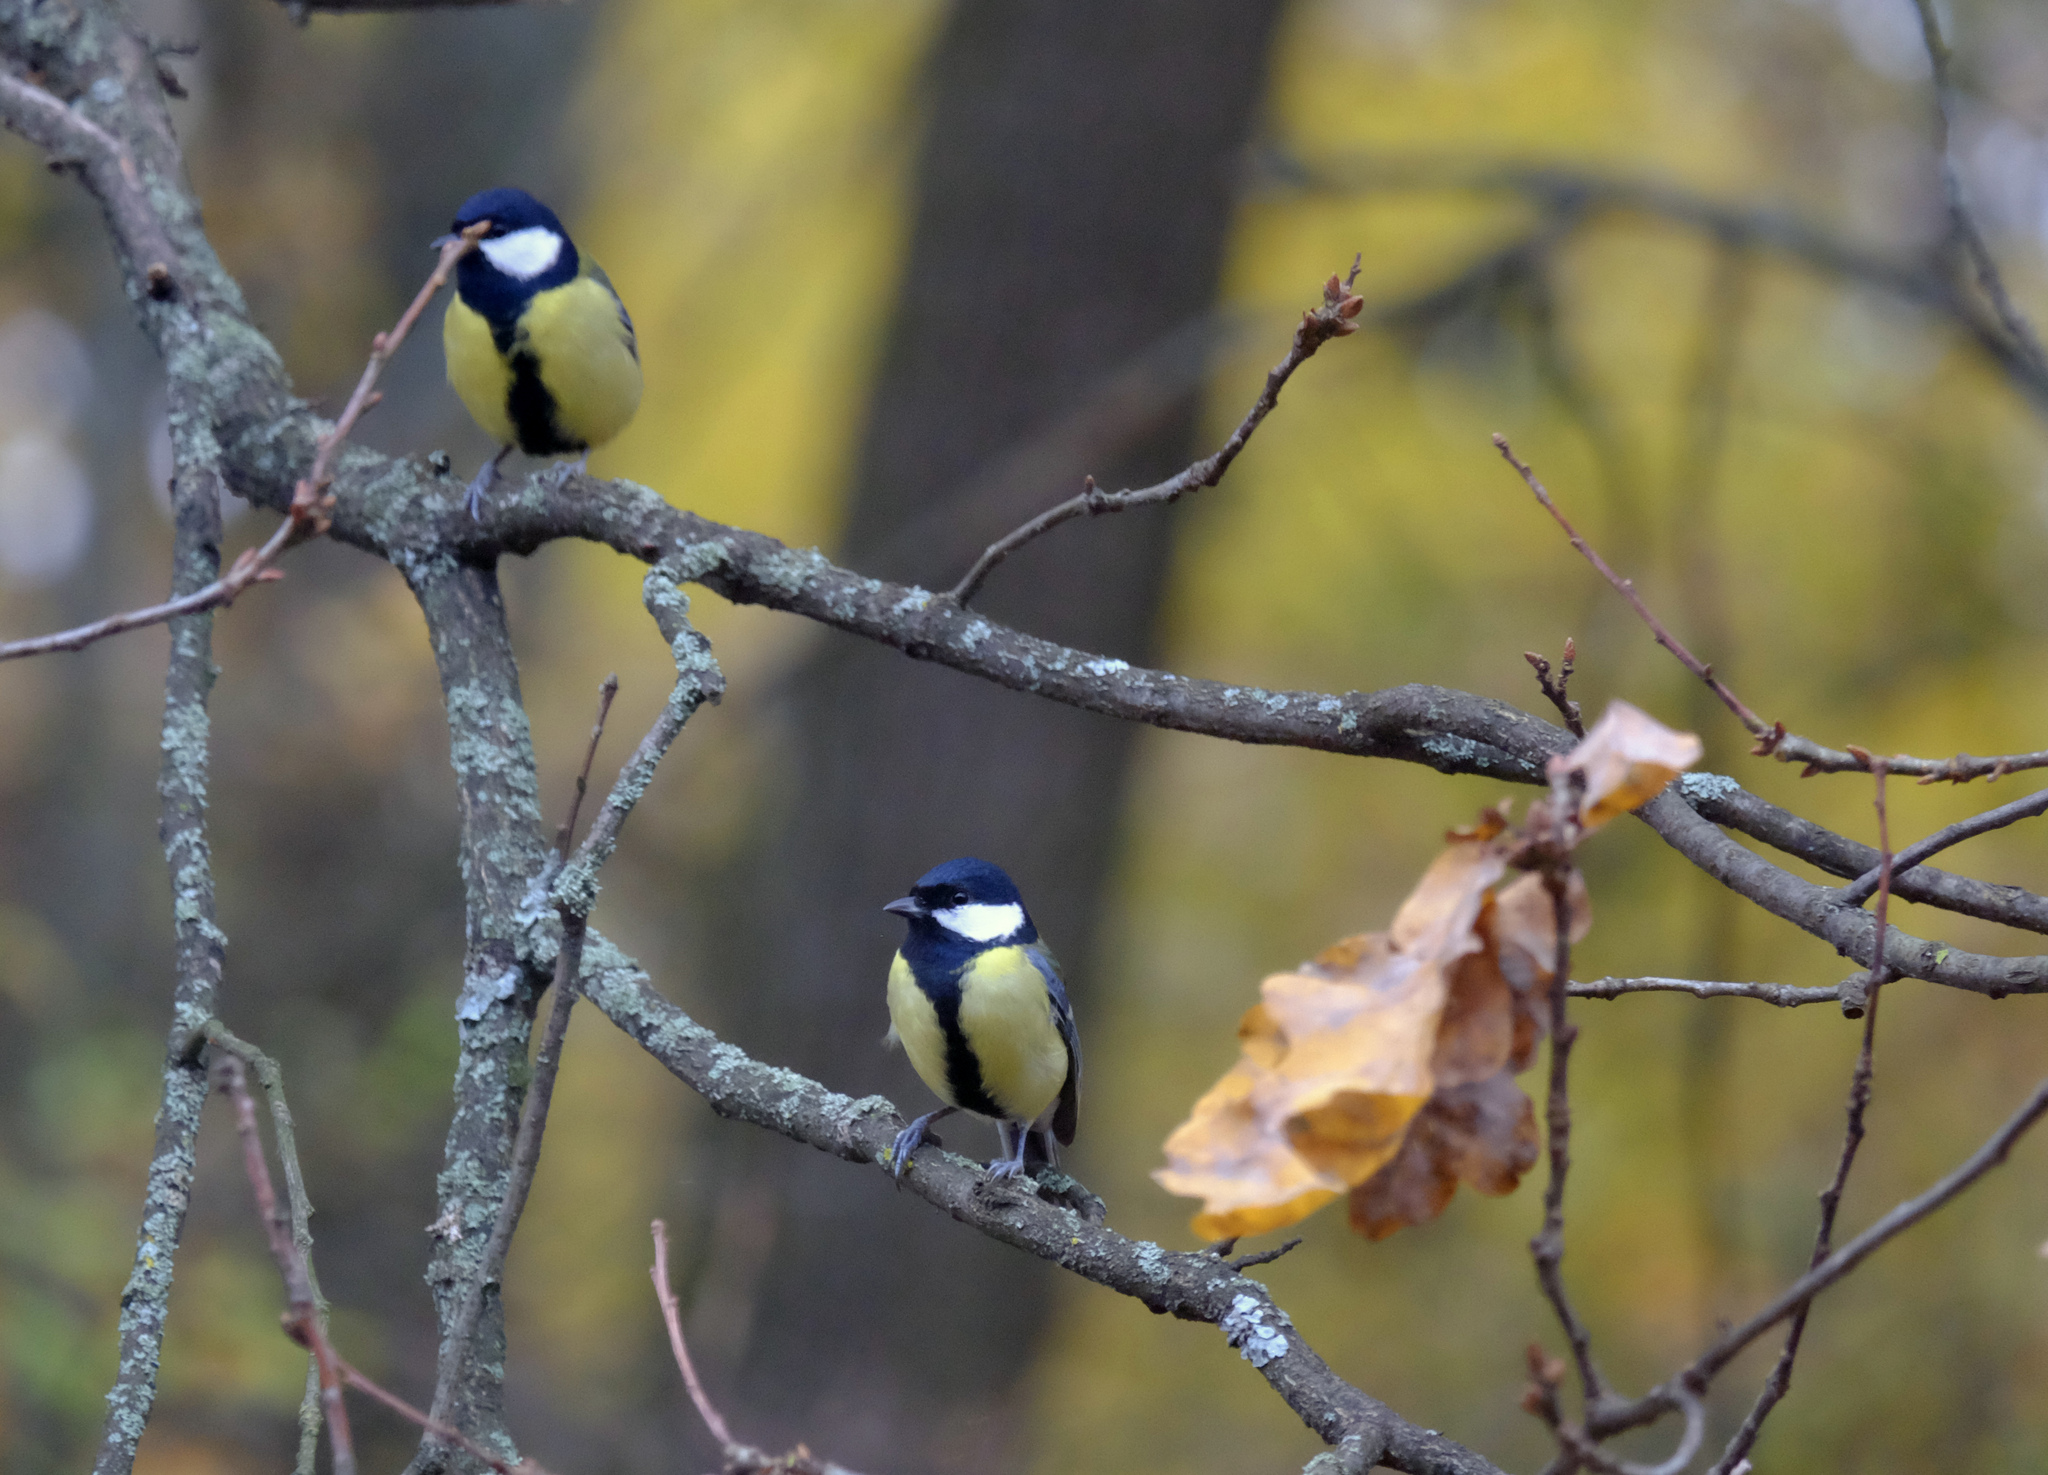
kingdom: Animalia
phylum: Chordata
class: Aves
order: Passeriformes
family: Paridae
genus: Parus
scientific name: Parus major
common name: Great tit
